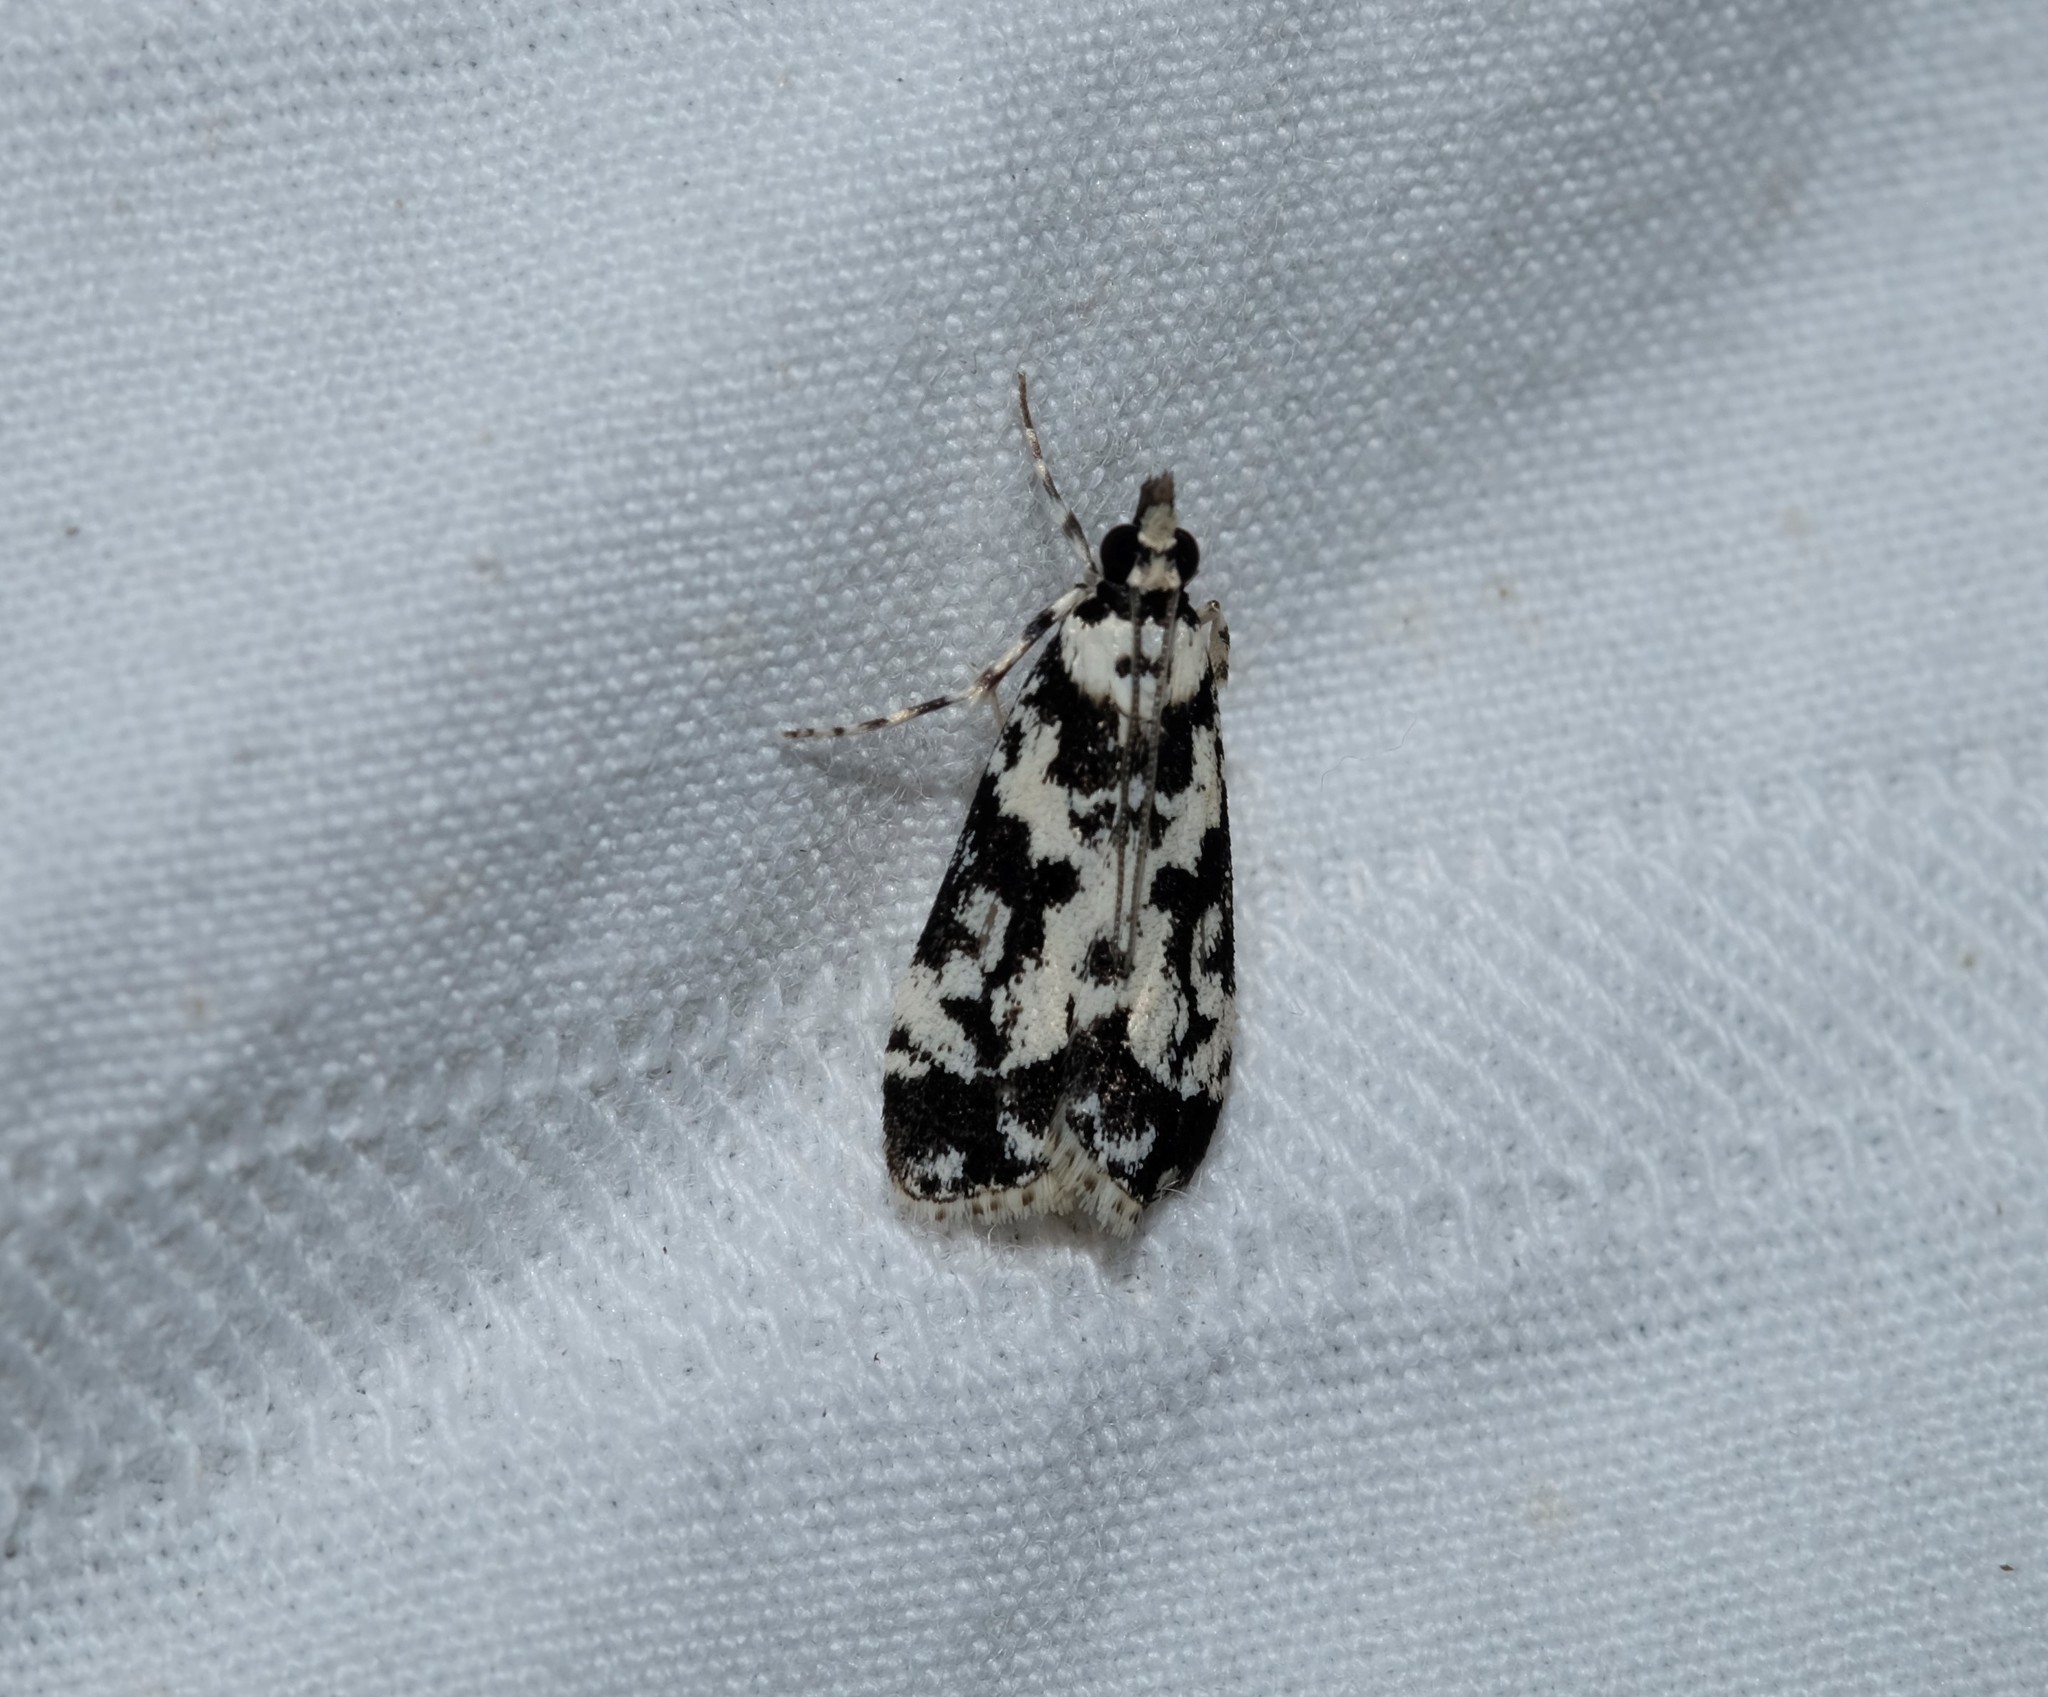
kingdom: Animalia
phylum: Arthropoda
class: Insecta
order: Lepidoptera
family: Crambidae
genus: Eudonia
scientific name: Eudonia aphrodes
